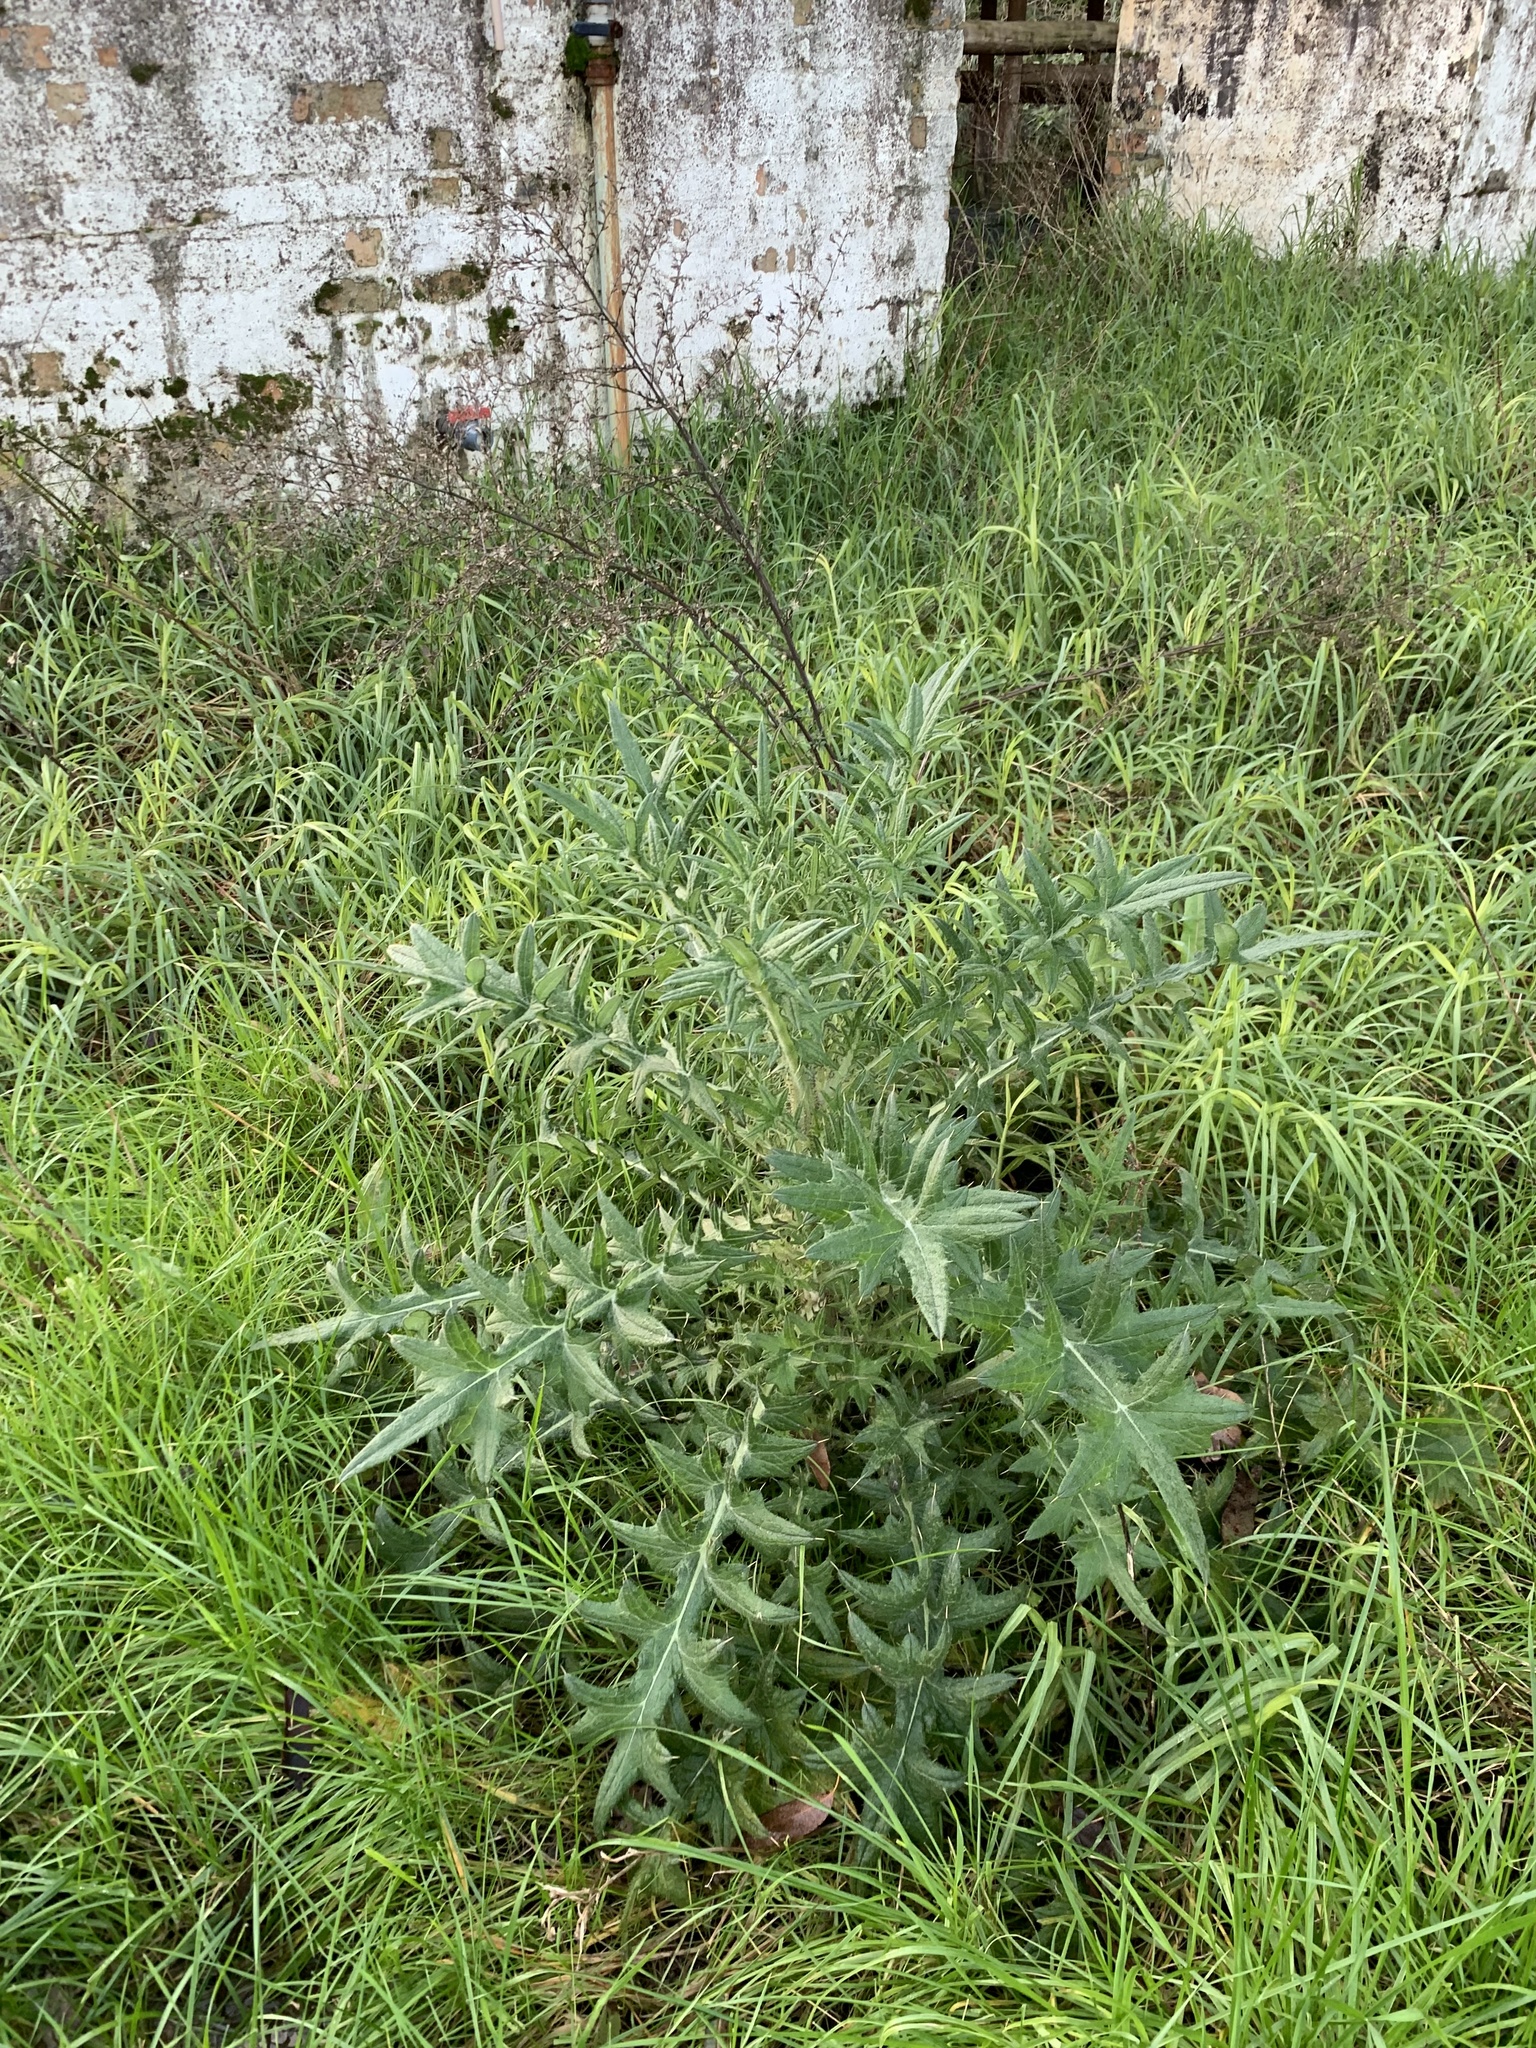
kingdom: Plantae
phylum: Tracheophyta
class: Magnoliopsida
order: Asterales
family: Asteraceae
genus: Cirsium
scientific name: Cirsium vulgare
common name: Bull thistle
